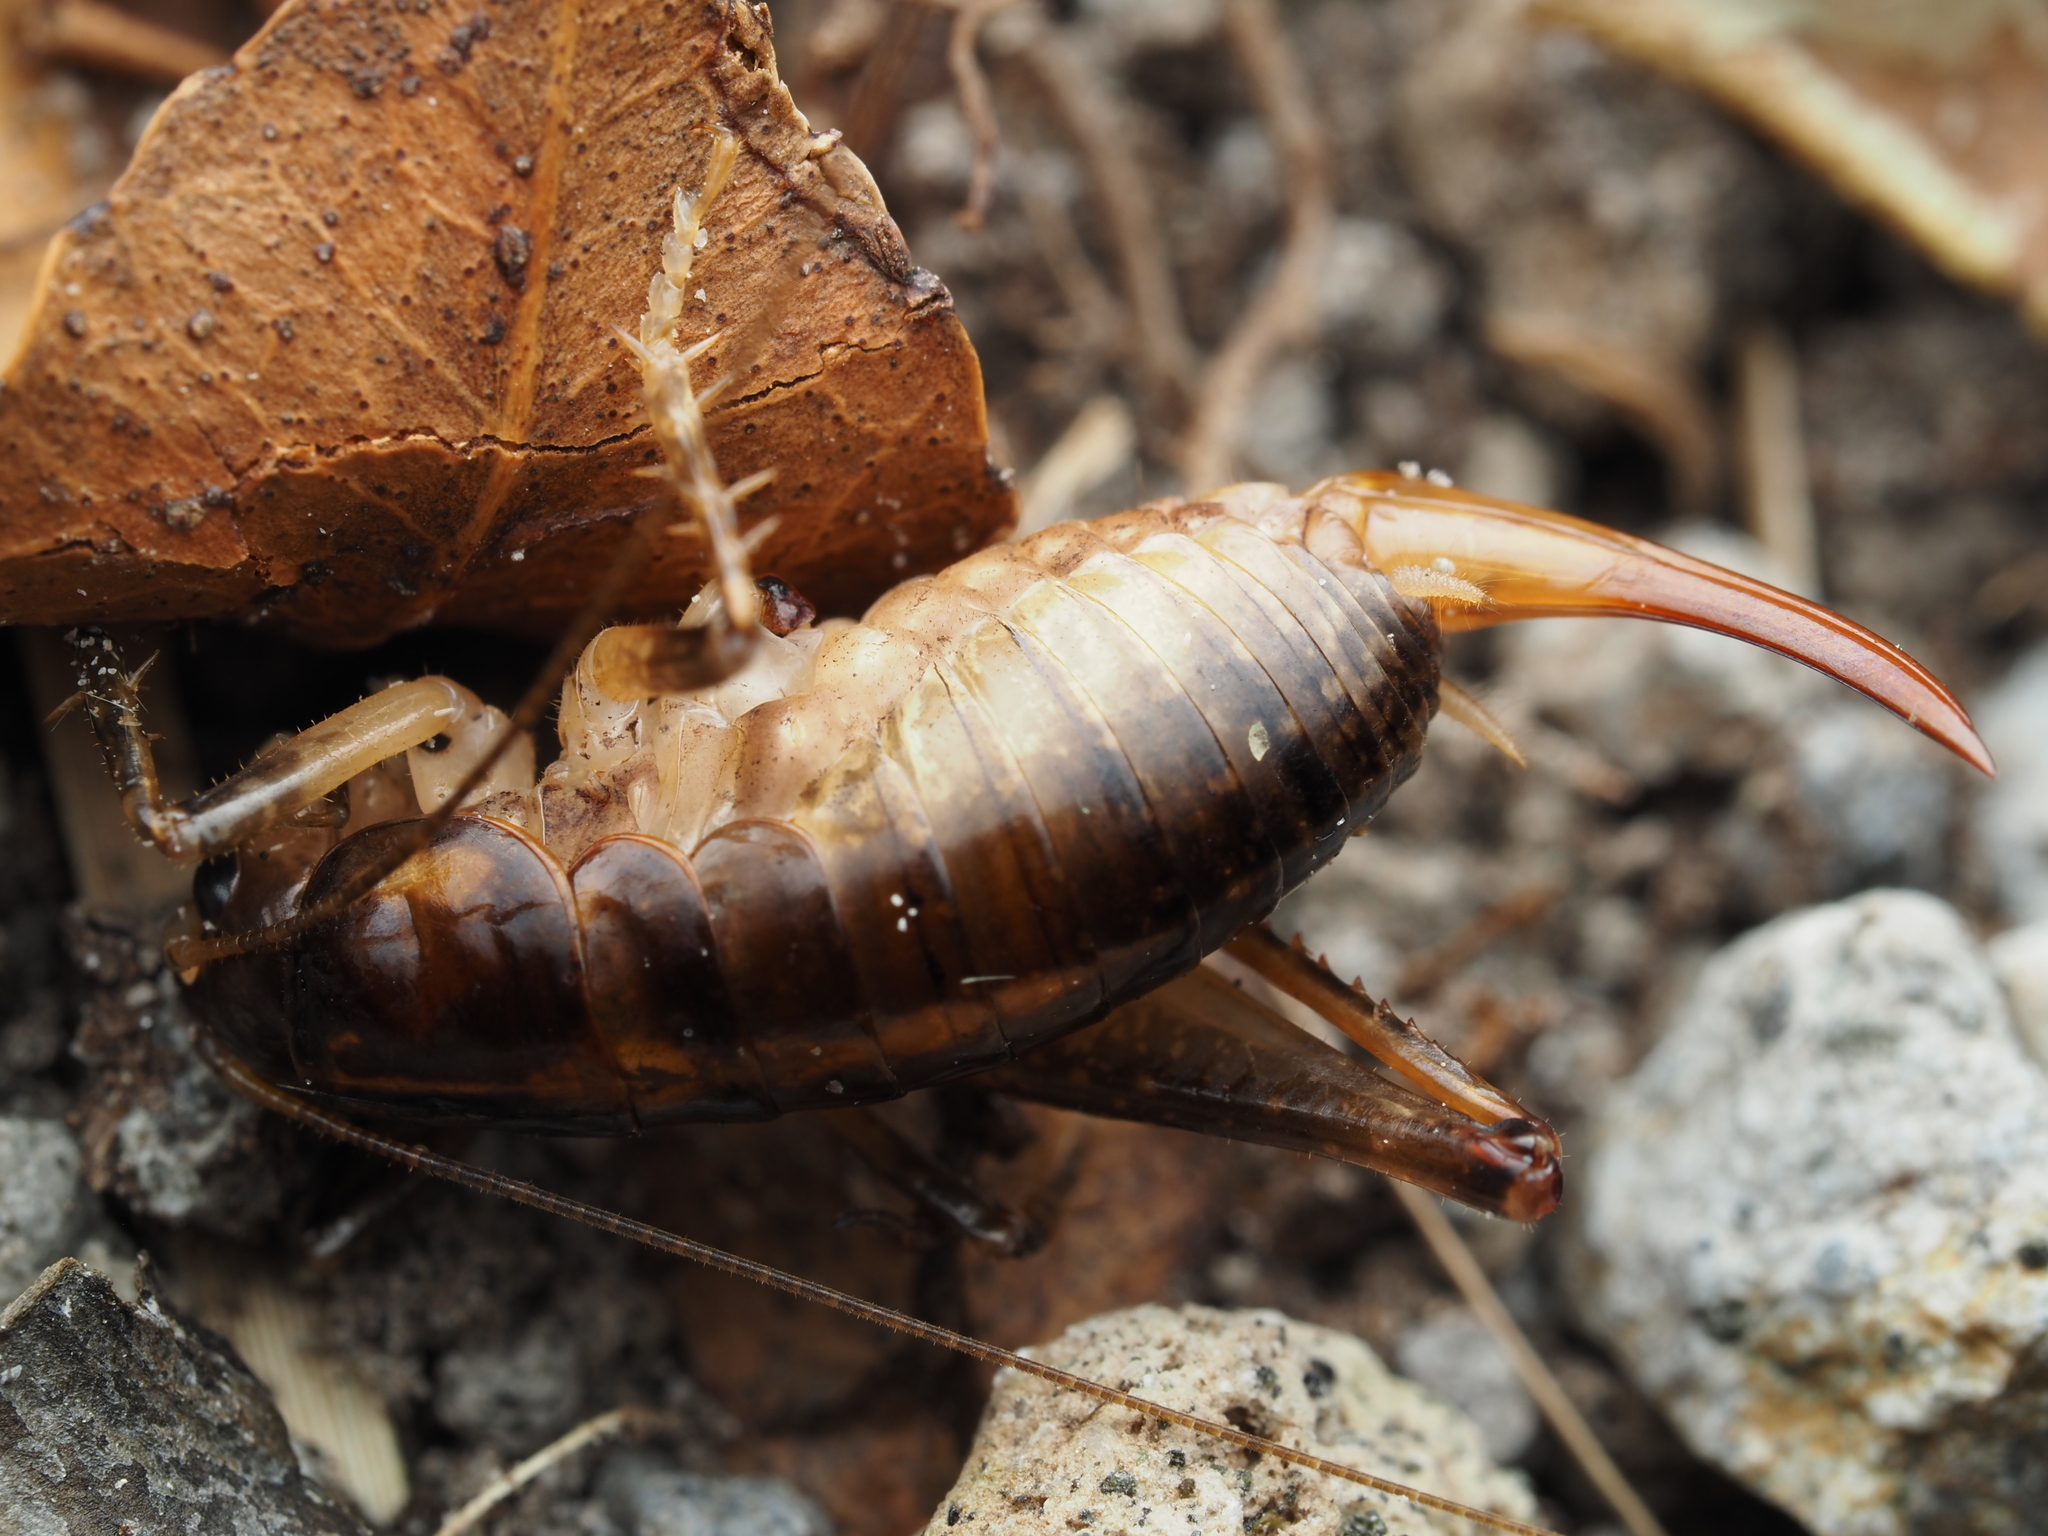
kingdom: Animalia
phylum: Arthropoda
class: Insecta
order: Orthoptera
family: Anostostomatidae
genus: Hemiandrus
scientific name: Hemiandrus brucei
